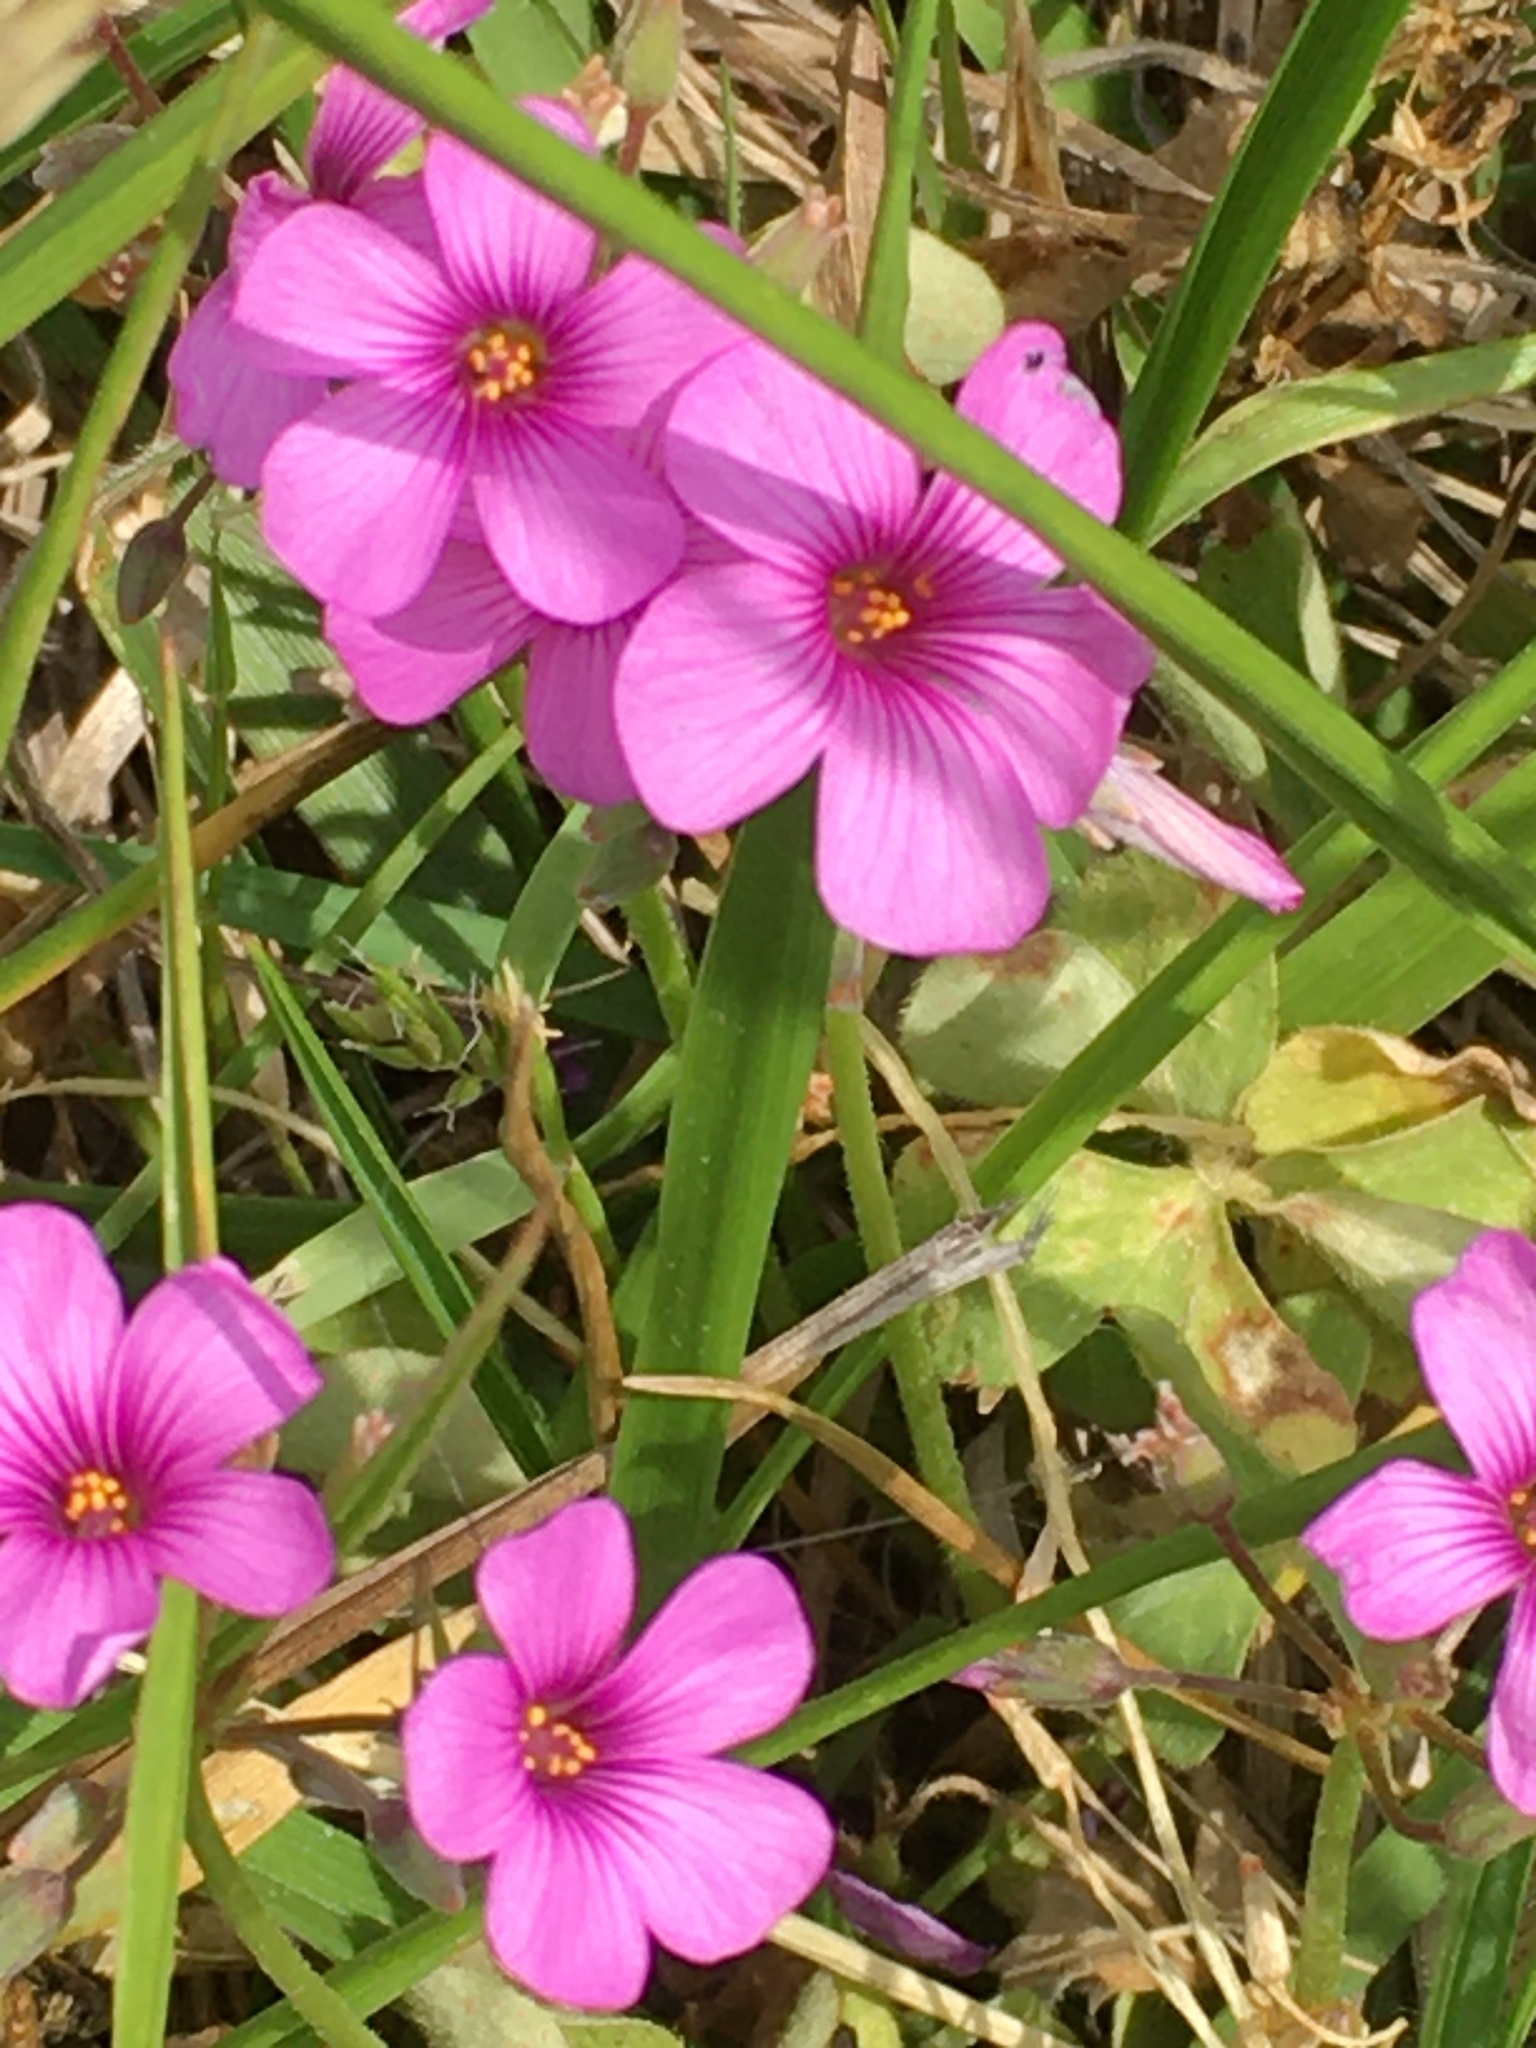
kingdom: Plantae
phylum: Tracheophyta
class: Magnoliopsida
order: Oxalidales
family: Oxalidaceae
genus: Oxalis
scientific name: Oxalis articulata
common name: Pink-sorrel
